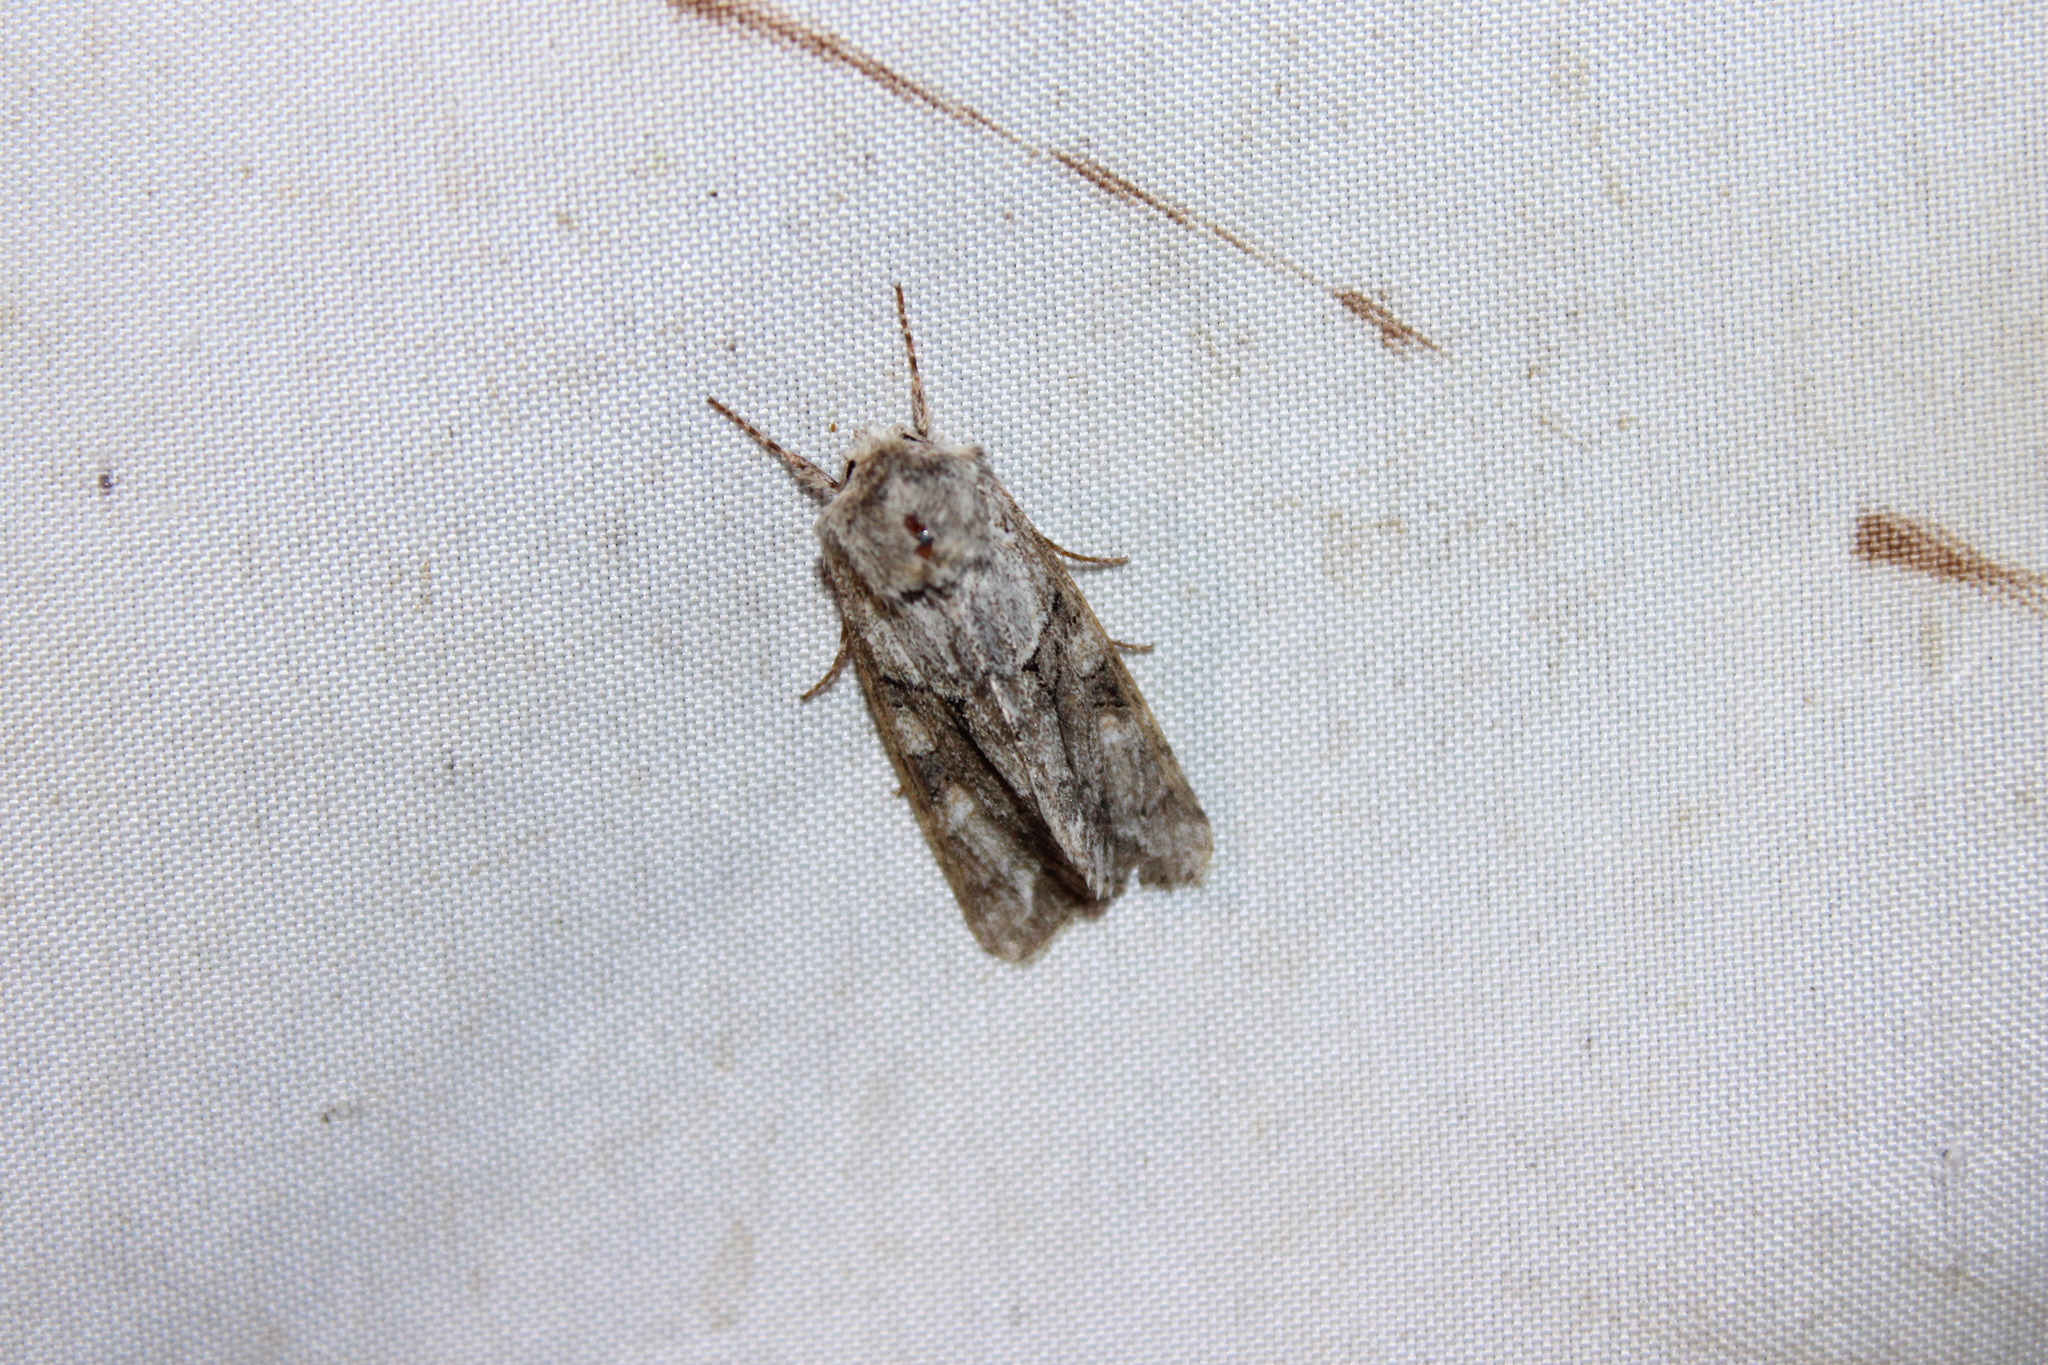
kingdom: Animalia
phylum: Arthropoda
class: Insecta
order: Lepidoptera
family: Noctuidae
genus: Achatia
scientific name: Achatia distincta
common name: Distinct quaker
